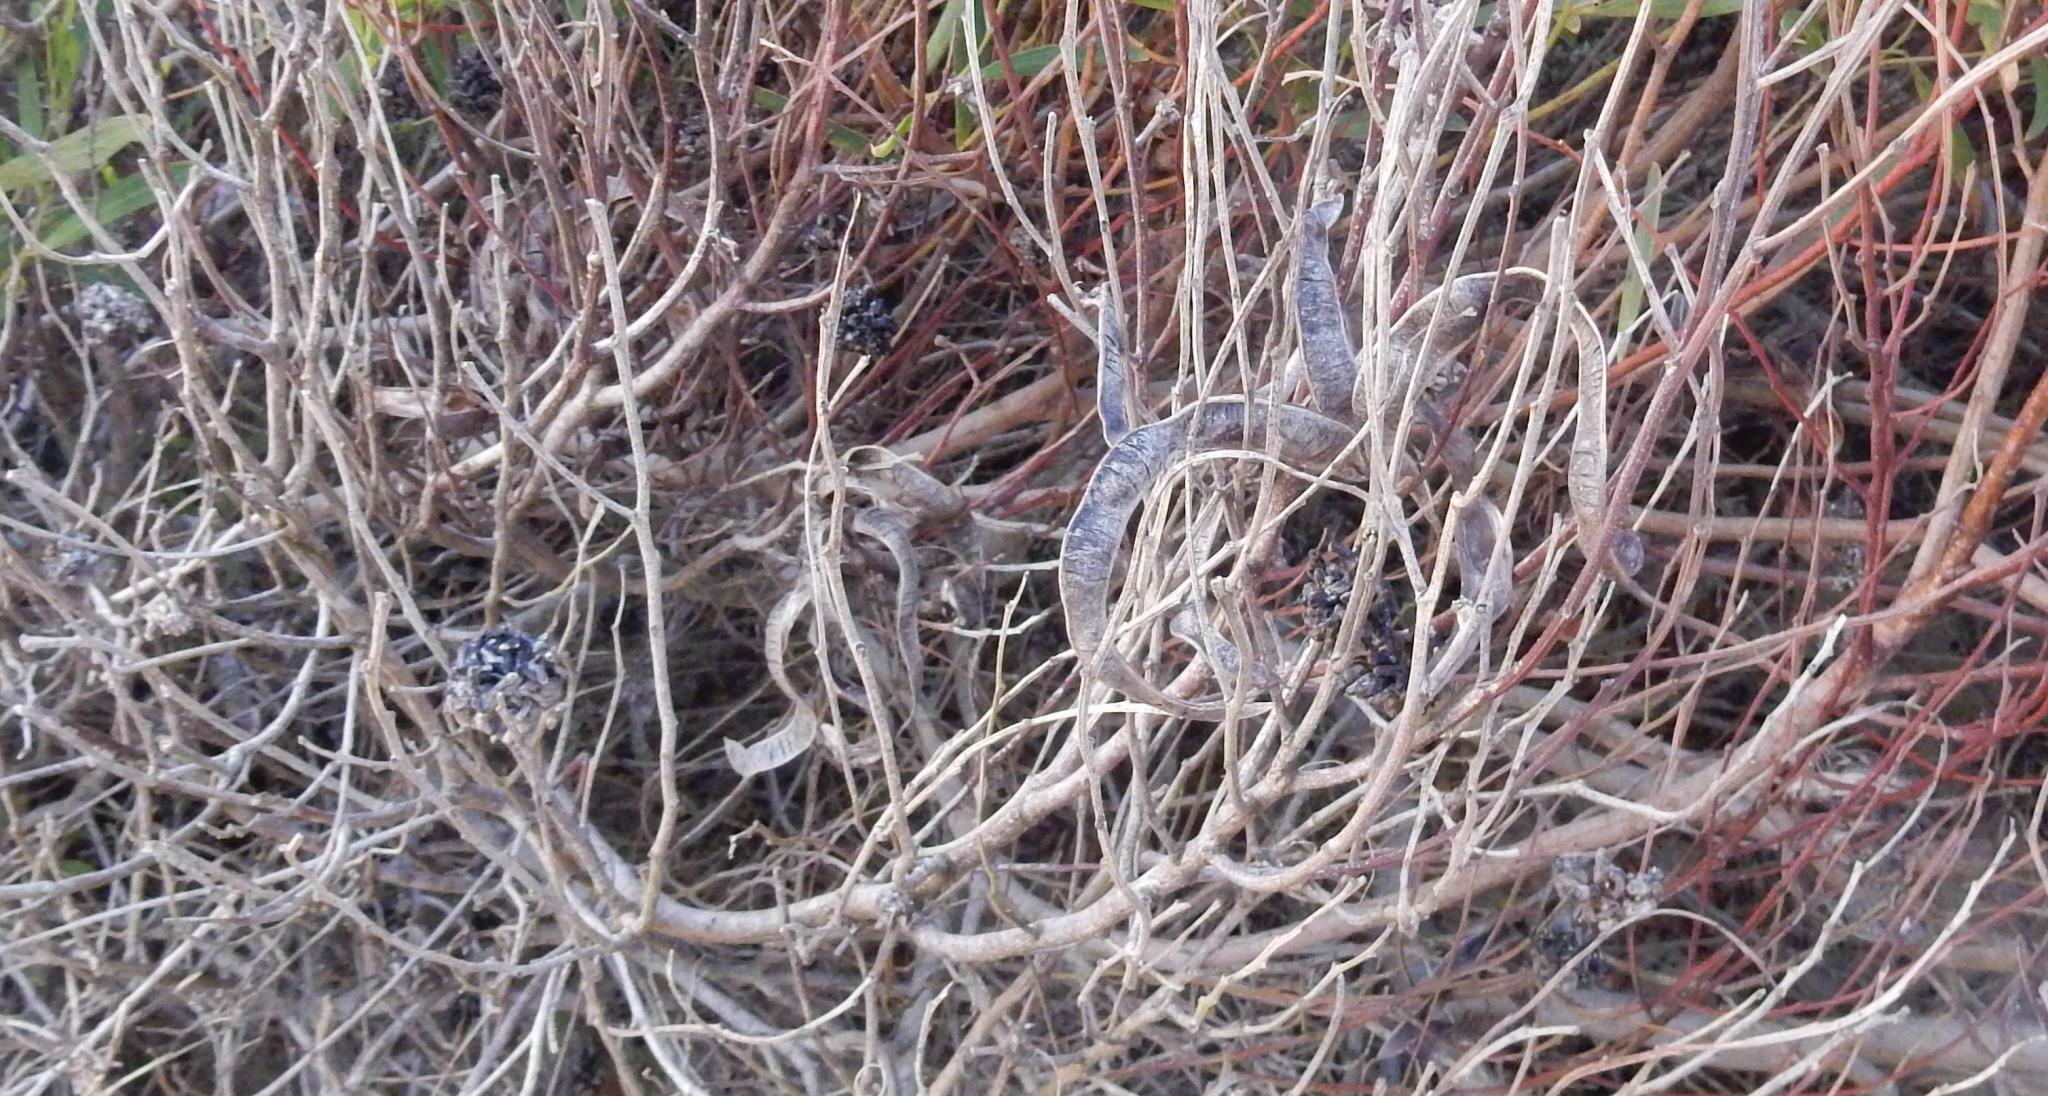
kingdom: Plantae
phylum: Tracheophyta
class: Magnoliopsida
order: Fabales
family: Fabaceae
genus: Acacia
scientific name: Acacia cyclops
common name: Coastal wattle
